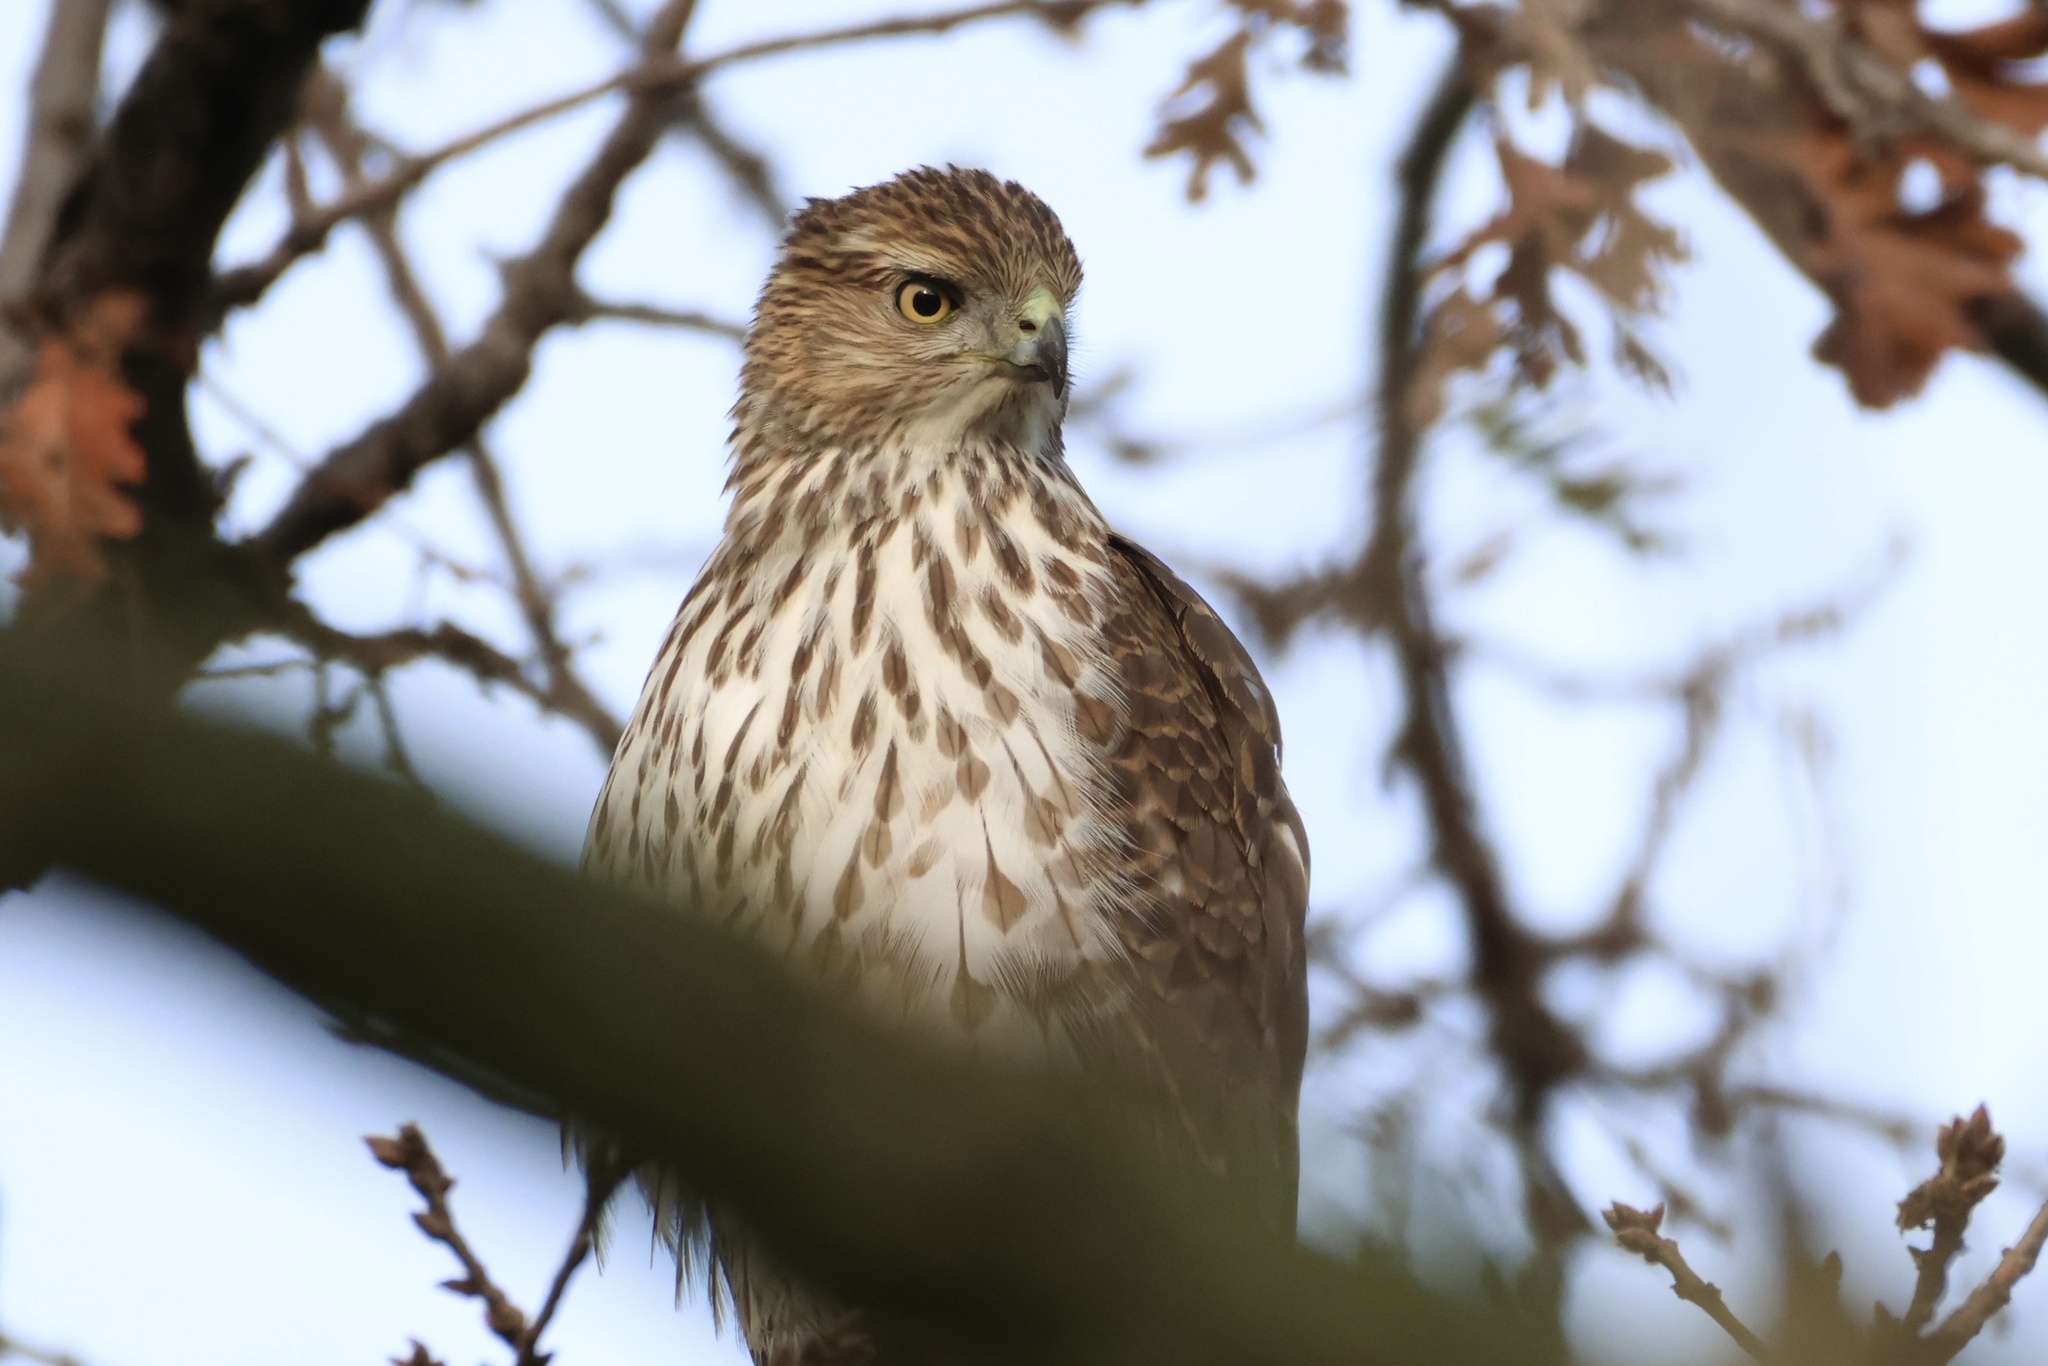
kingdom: Animalia
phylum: Chordata
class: Aves
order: Accipitriformes
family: Accipitridae
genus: Accipiter
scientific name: Accipiter cooperii
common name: Cooper's hawk
